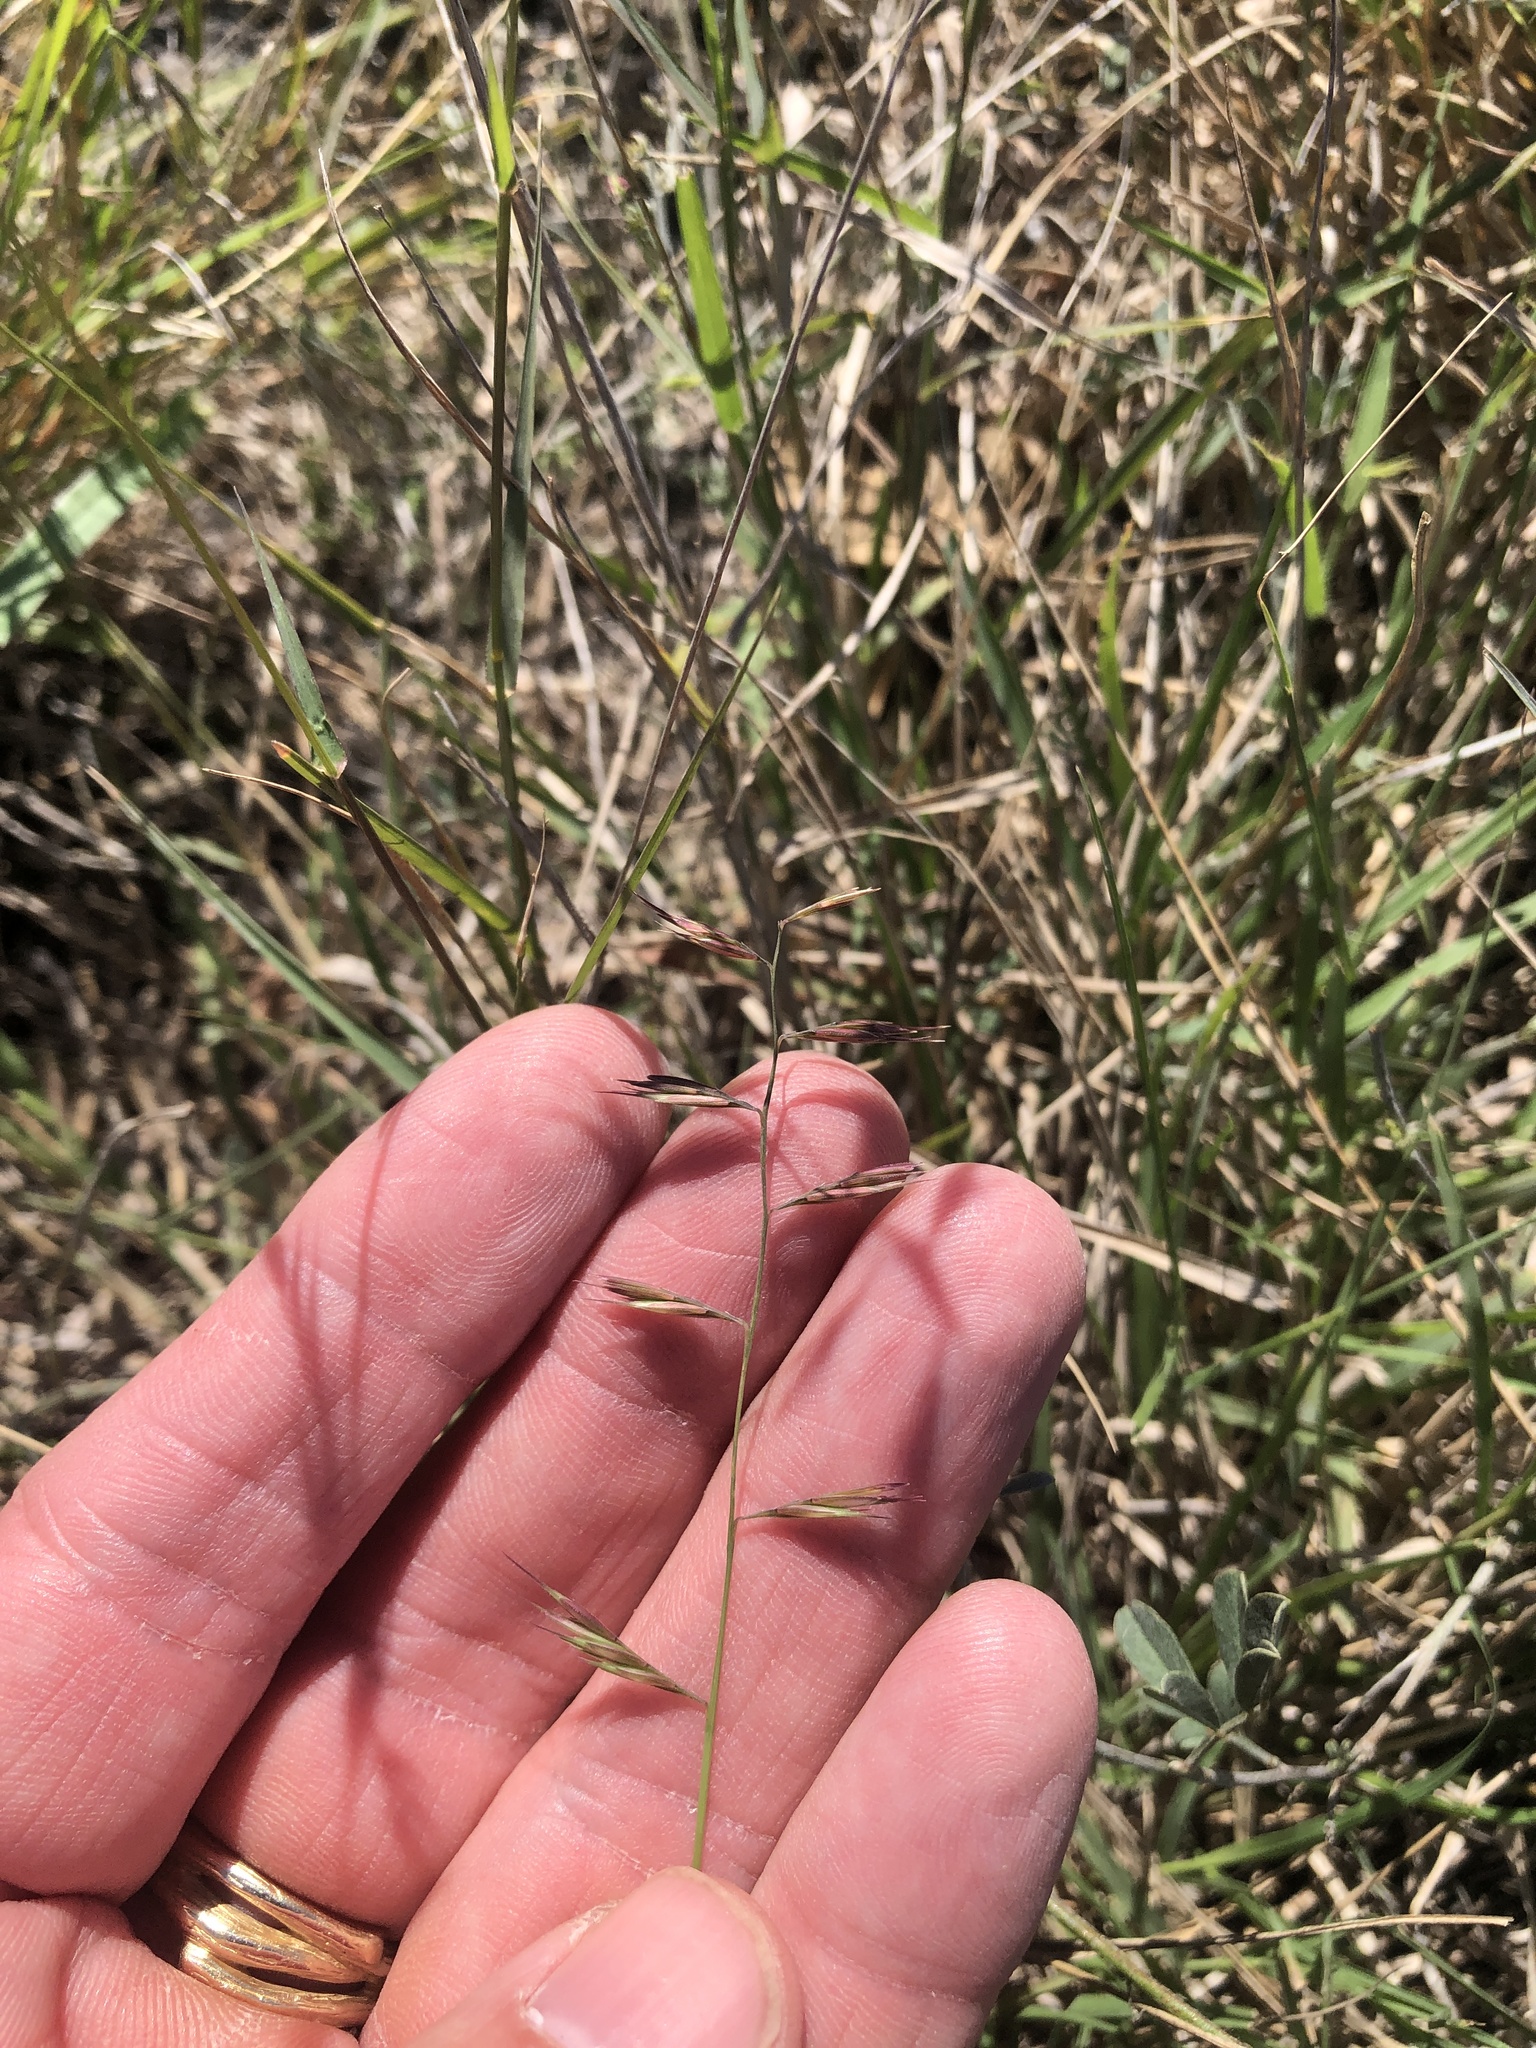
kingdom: Plantae
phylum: Tracheophyta
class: Liliopsida
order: Poales
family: Poaceae
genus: Bouteloua
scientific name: Bouteloua repens
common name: Slender grama
